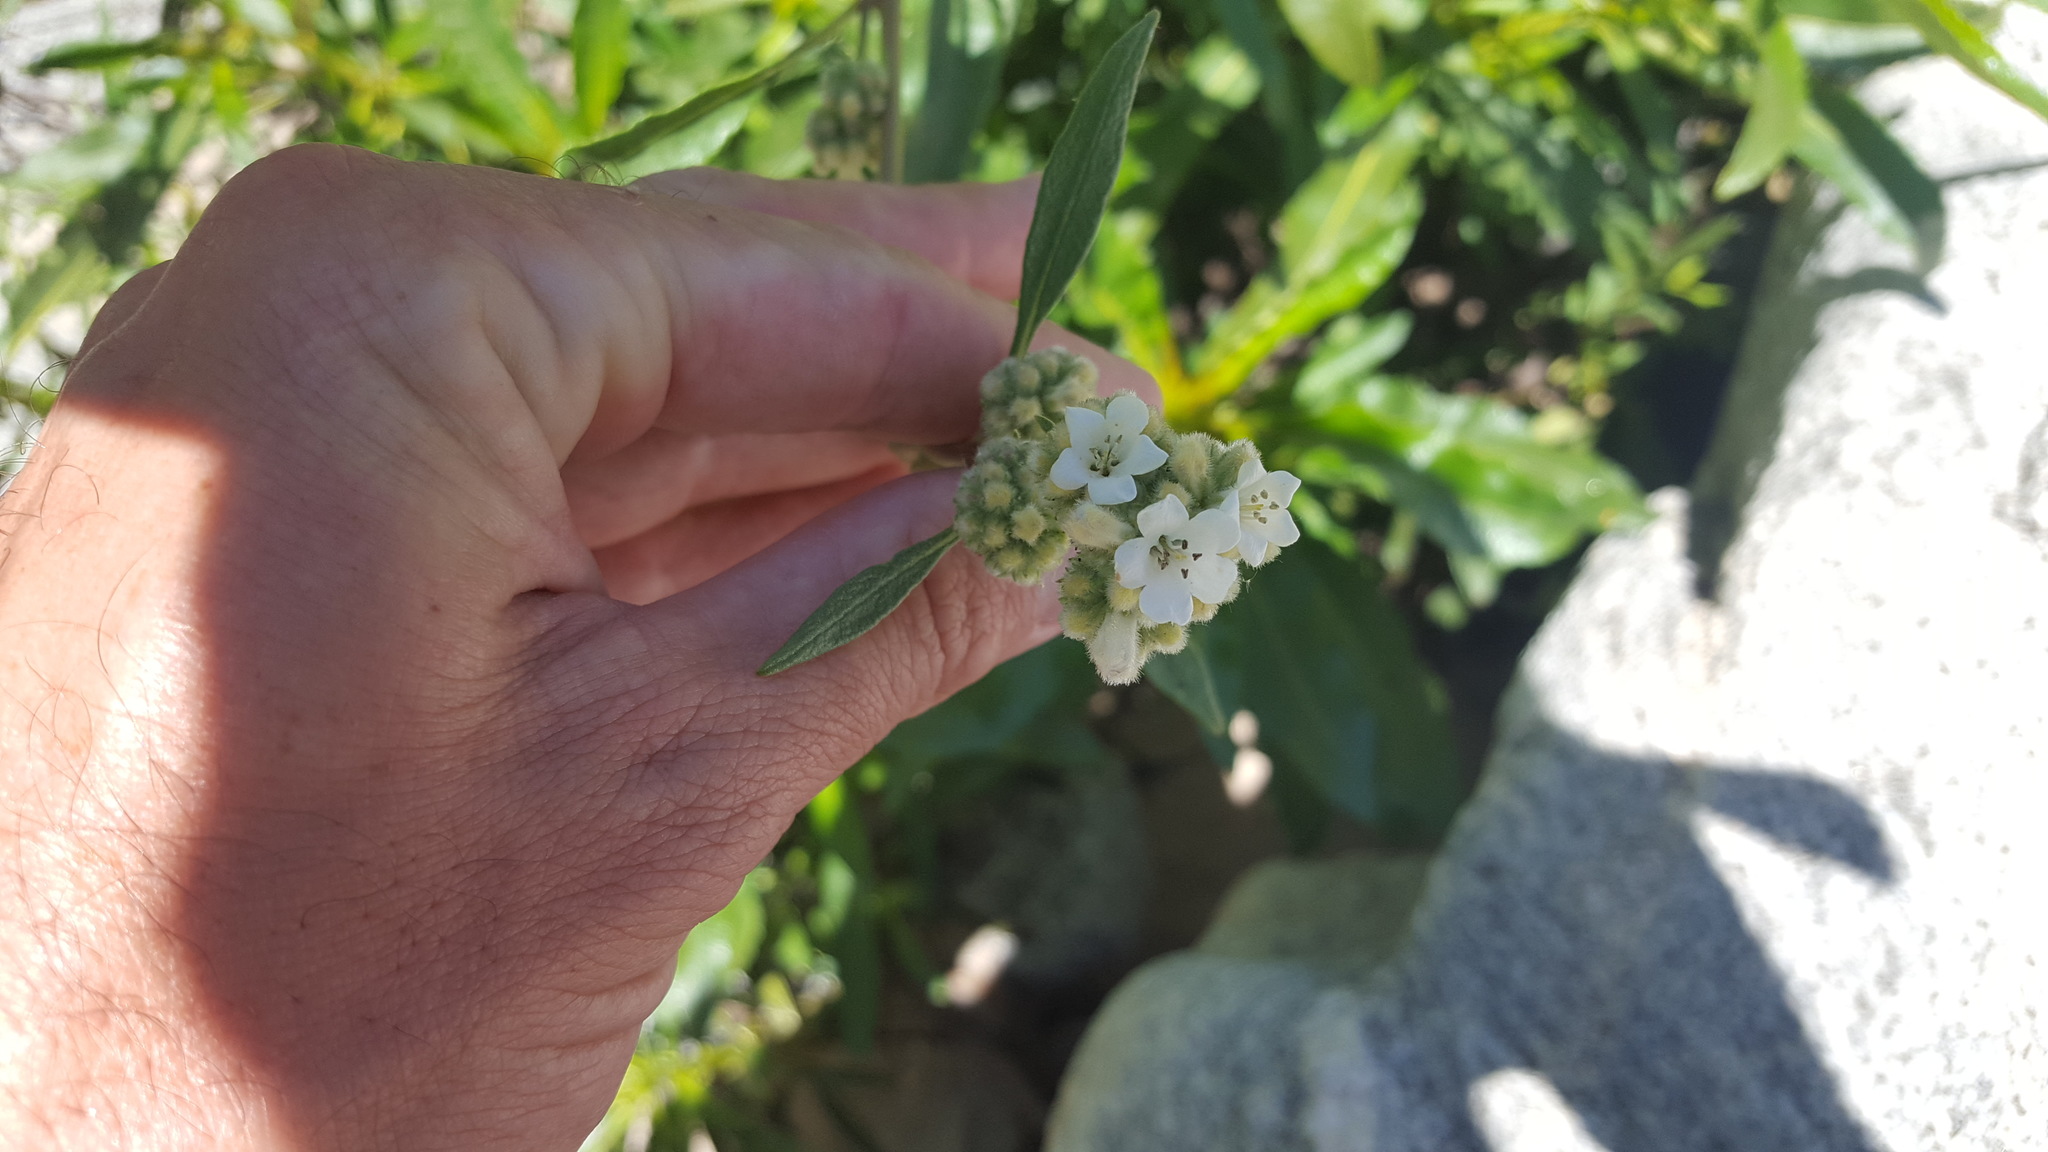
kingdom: Plantae
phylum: Tracheophyta
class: Magnoliopsida
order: Boraginales
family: Namaceae
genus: Eriodictyon
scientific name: Eriodictyon trichocalyx
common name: Hairy yerba-santa
